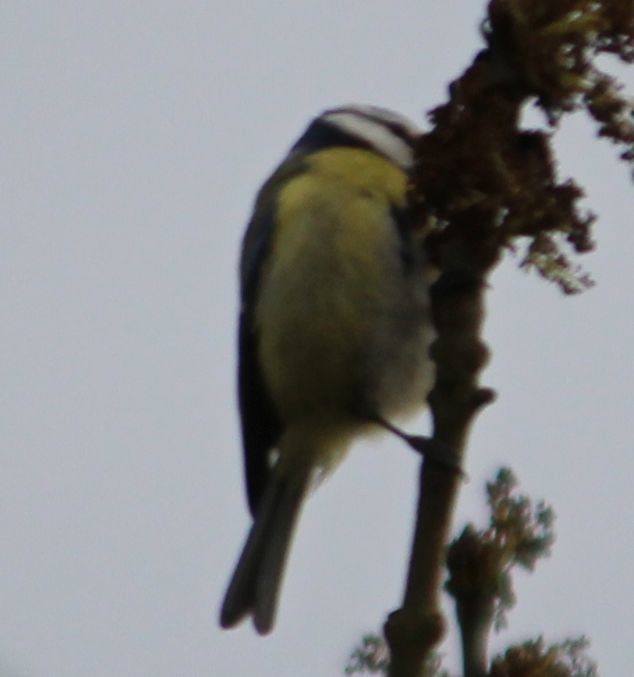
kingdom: Animalia
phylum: Chordata
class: Aves
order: Passeriformes
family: Paridae
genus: Cyanistes
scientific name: Cyanistes caeruleus
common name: Eurasian blue tit
